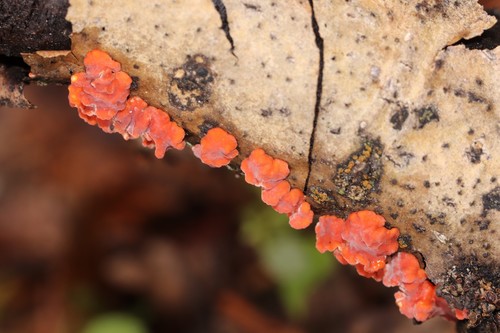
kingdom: Fungi
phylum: Basidiomycota
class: Agaricomycetes
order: Russulales
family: Peniophoraceae
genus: Peniophora
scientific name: Peniophora rufa
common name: Red tree brain fungus
